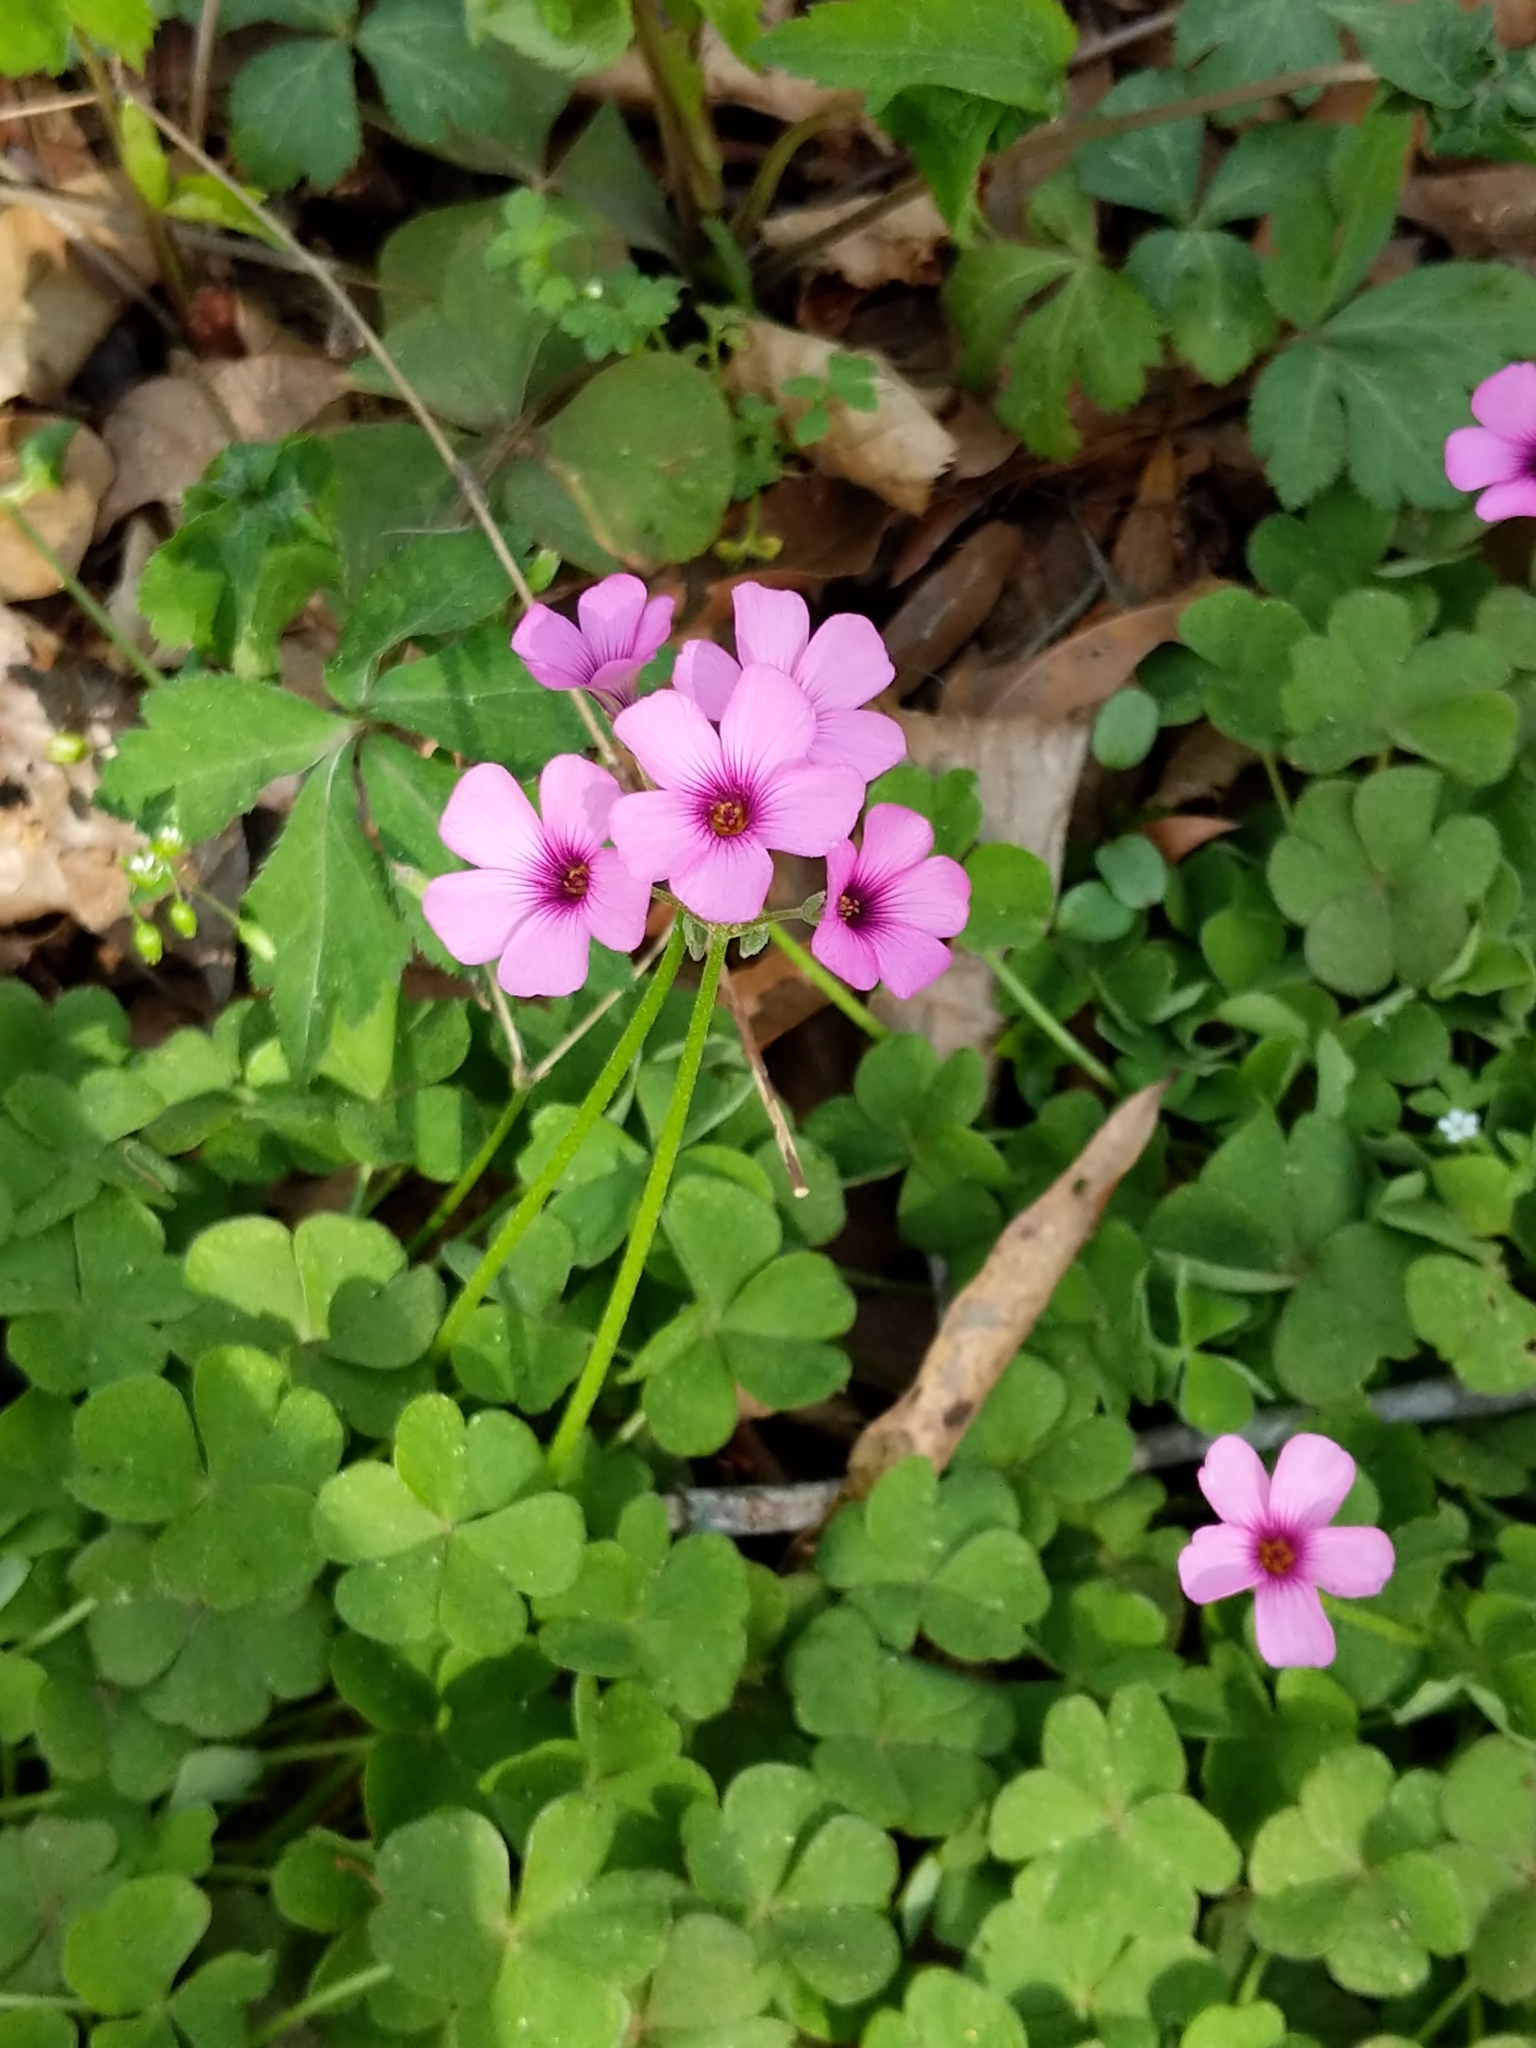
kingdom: Plantae
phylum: Tracheophyta
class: Magnoliopsida
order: Oxalidales
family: Oxalidaceae
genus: Oxalis
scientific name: Oxalis articulata
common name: Pink-sorrel
